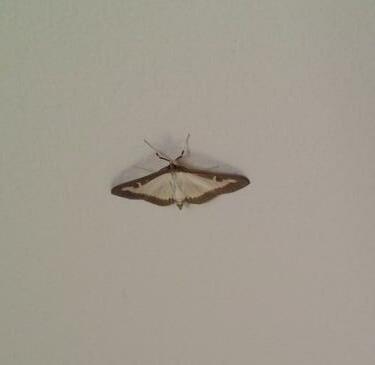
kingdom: Animalia
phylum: Arthropoda
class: Insecta
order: Lepidoptera
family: Crambidae
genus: Cydalima
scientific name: Cydalima perspectalis
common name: Box tree moth
